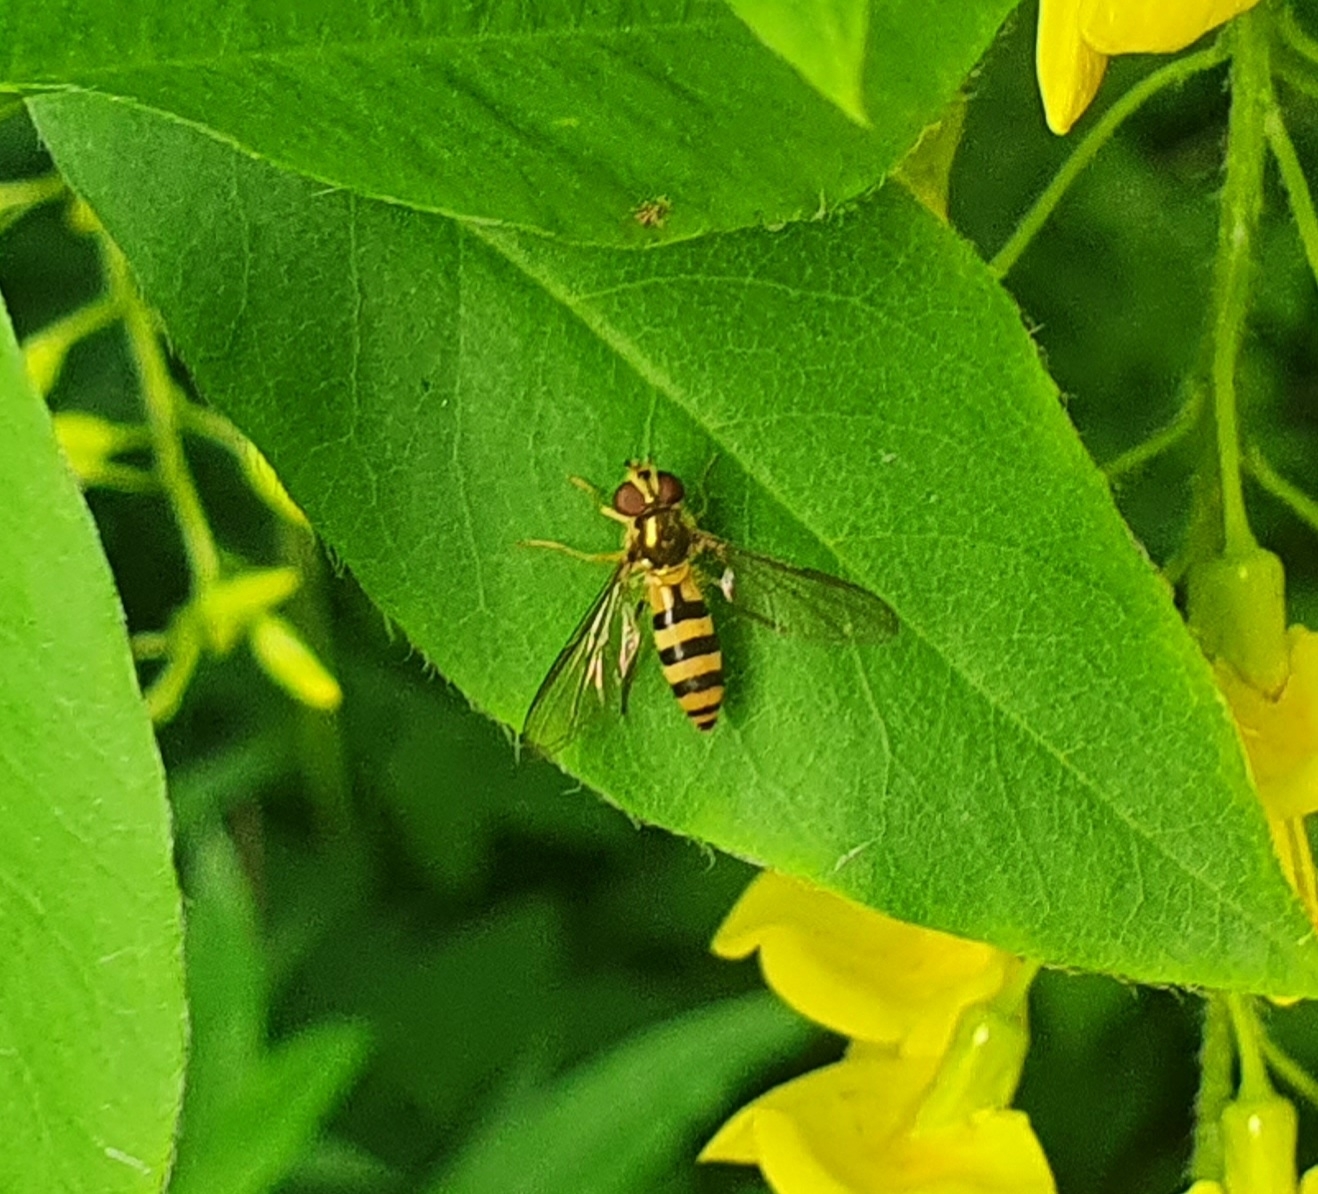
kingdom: Animalia
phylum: Arthropoda
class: Insecta
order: Diptera
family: Syrphidae
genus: Meliscaeva
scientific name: Meliscaeva cinctella
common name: American thintail fly
